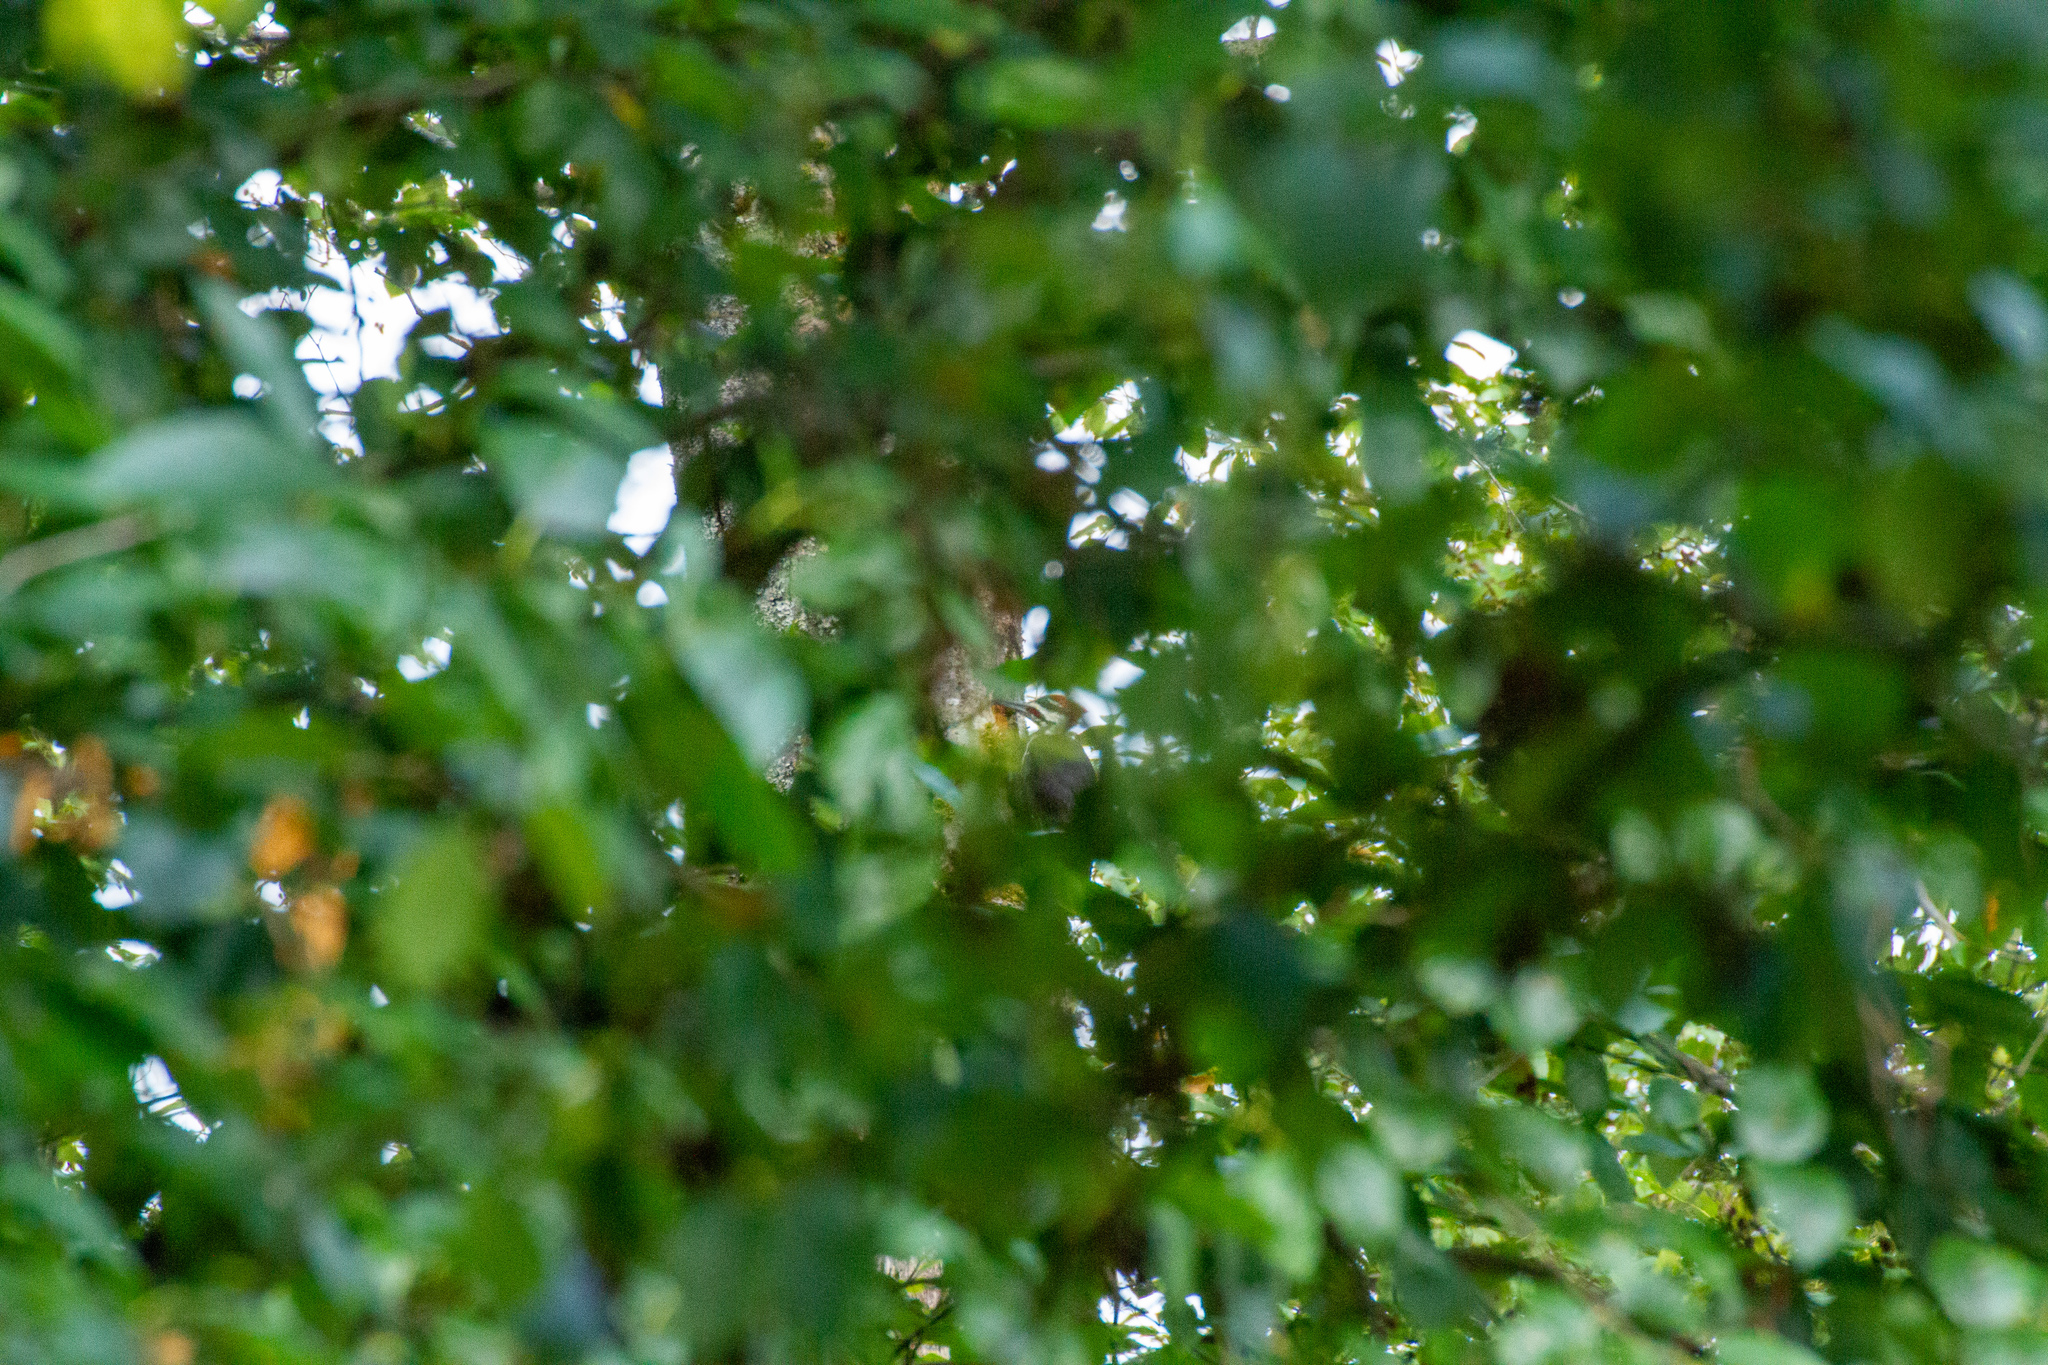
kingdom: Animalia
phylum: Chordata
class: Aves
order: Piciformes
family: Picidae
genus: Dryocopus
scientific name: Dryocopus pileatus
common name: Pileated woodpecker
